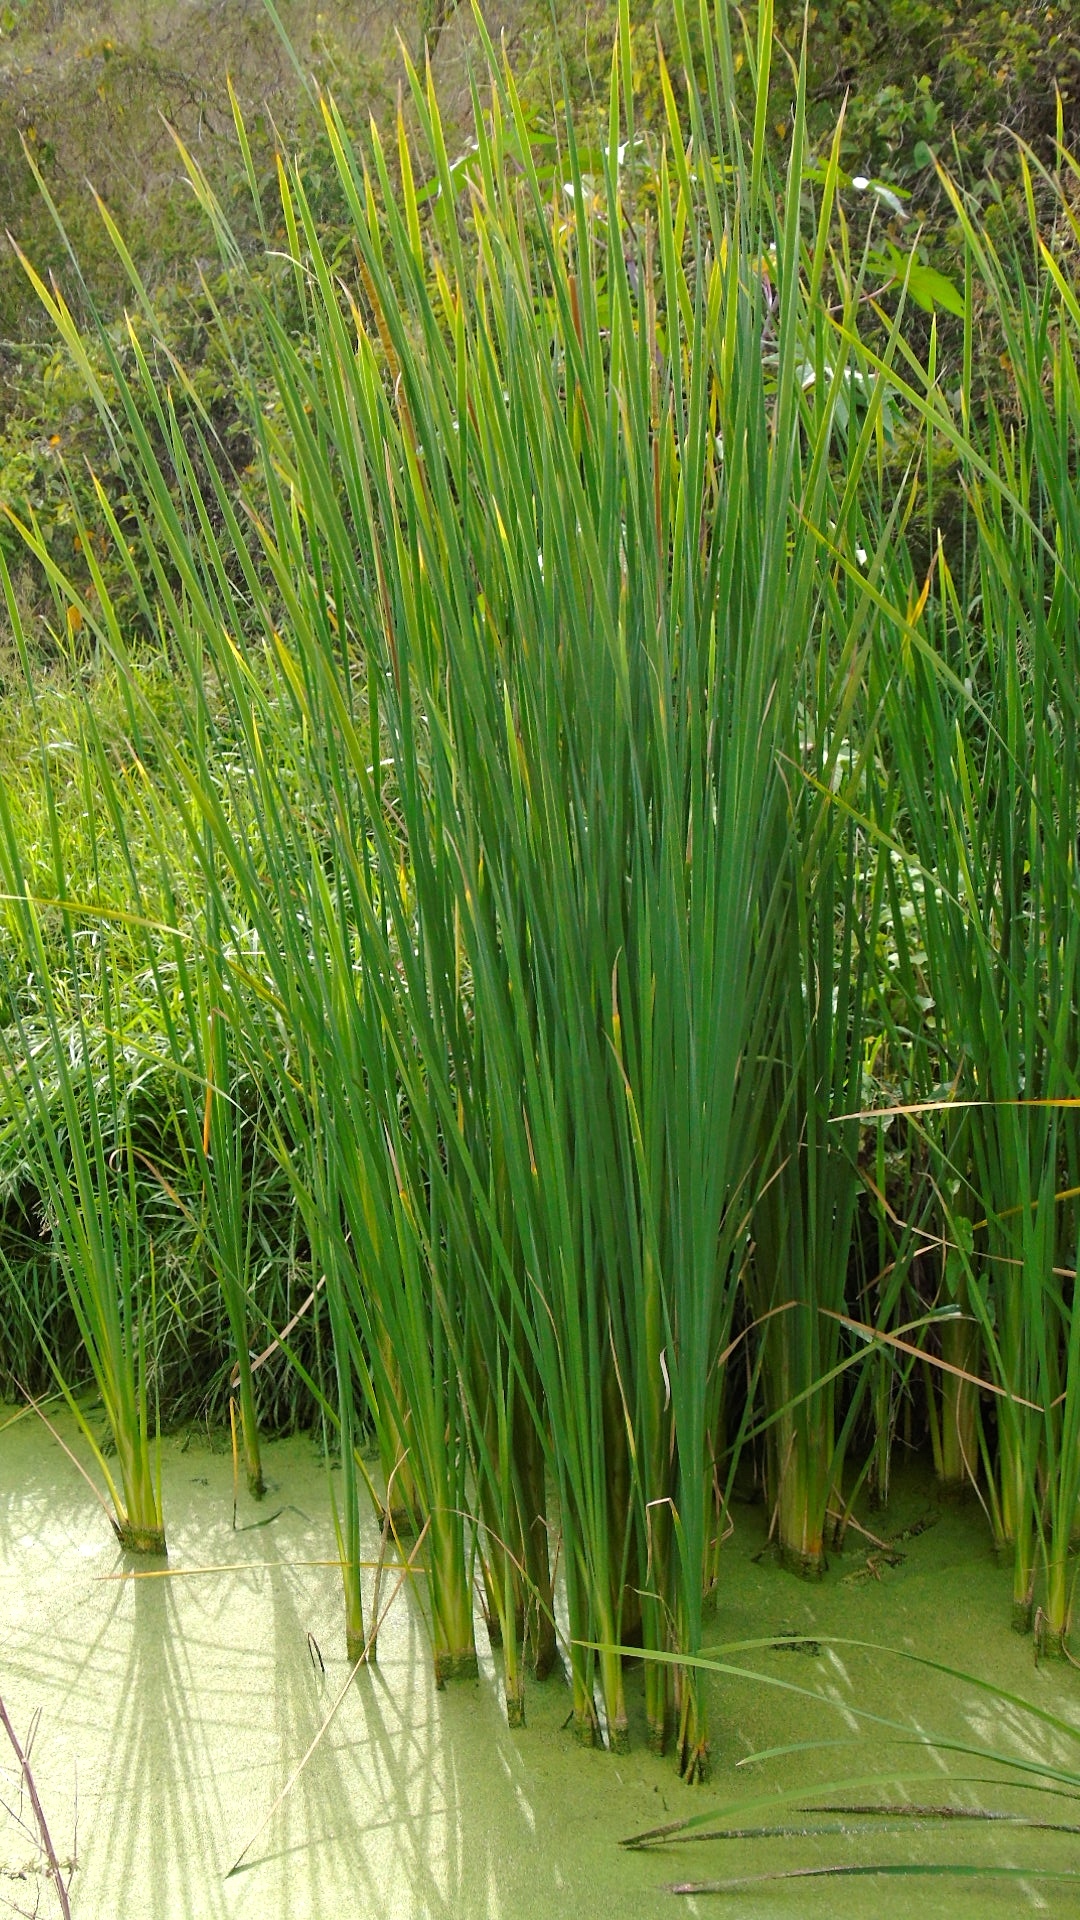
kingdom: Plantae
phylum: Tracheophyta
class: Liliopsida
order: Poales
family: Typhaceae
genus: Typha
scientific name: Typha domingensis
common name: Southern cattail
